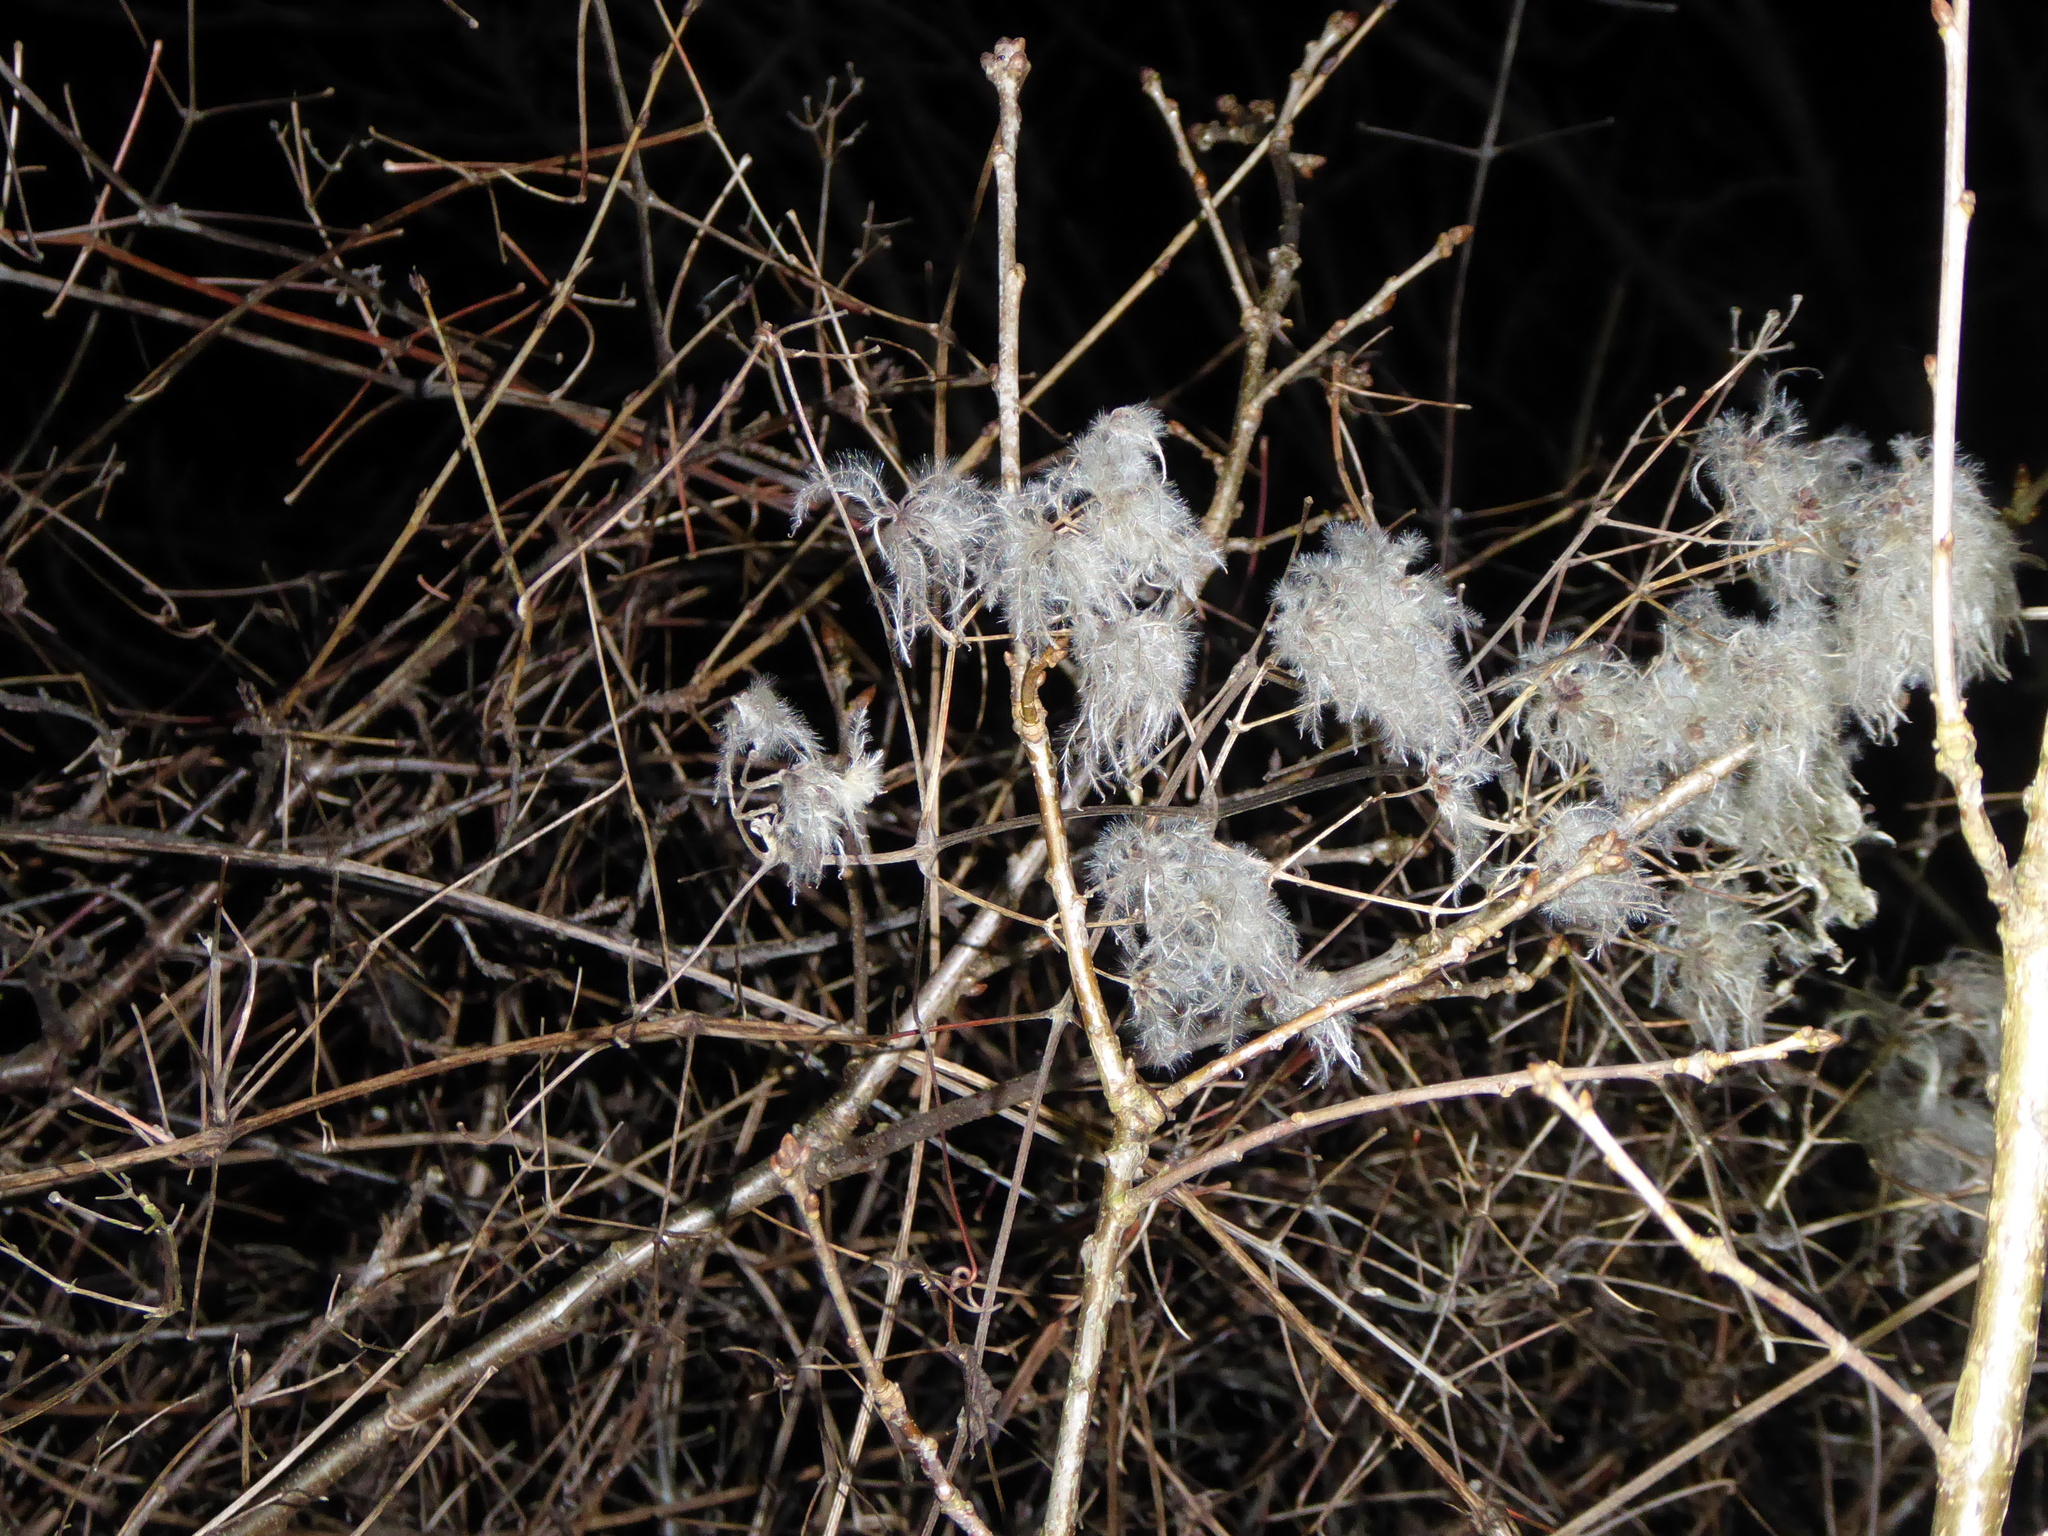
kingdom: Plantae
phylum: Tracheophyta
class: Magnoliopsida
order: Ranunculales
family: Ranunculaceae
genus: Clematis
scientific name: Clematis vitalba
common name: Evergreen clematis
